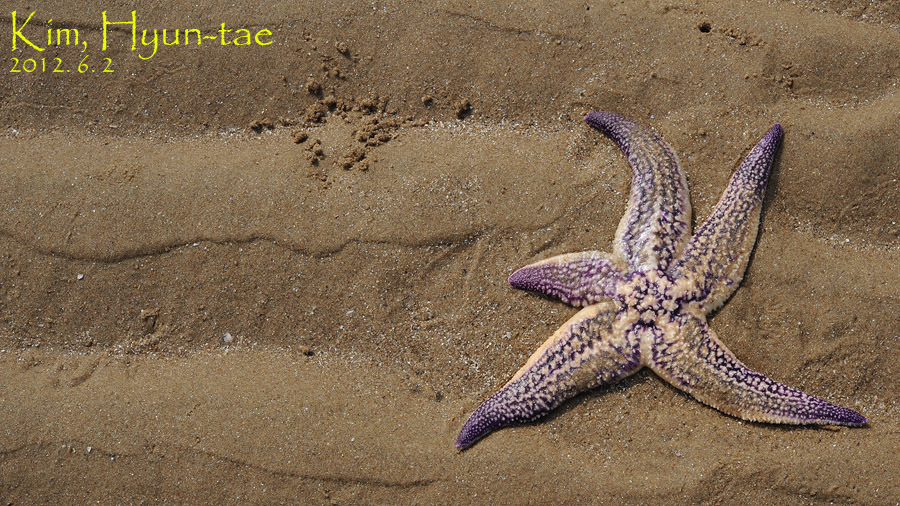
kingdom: Animalia
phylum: Echinodermata
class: Asteroidea
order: Forcipulatida
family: Asteriidae
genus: Asterias
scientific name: Asterias amurensis
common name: Flat-bottomed star
